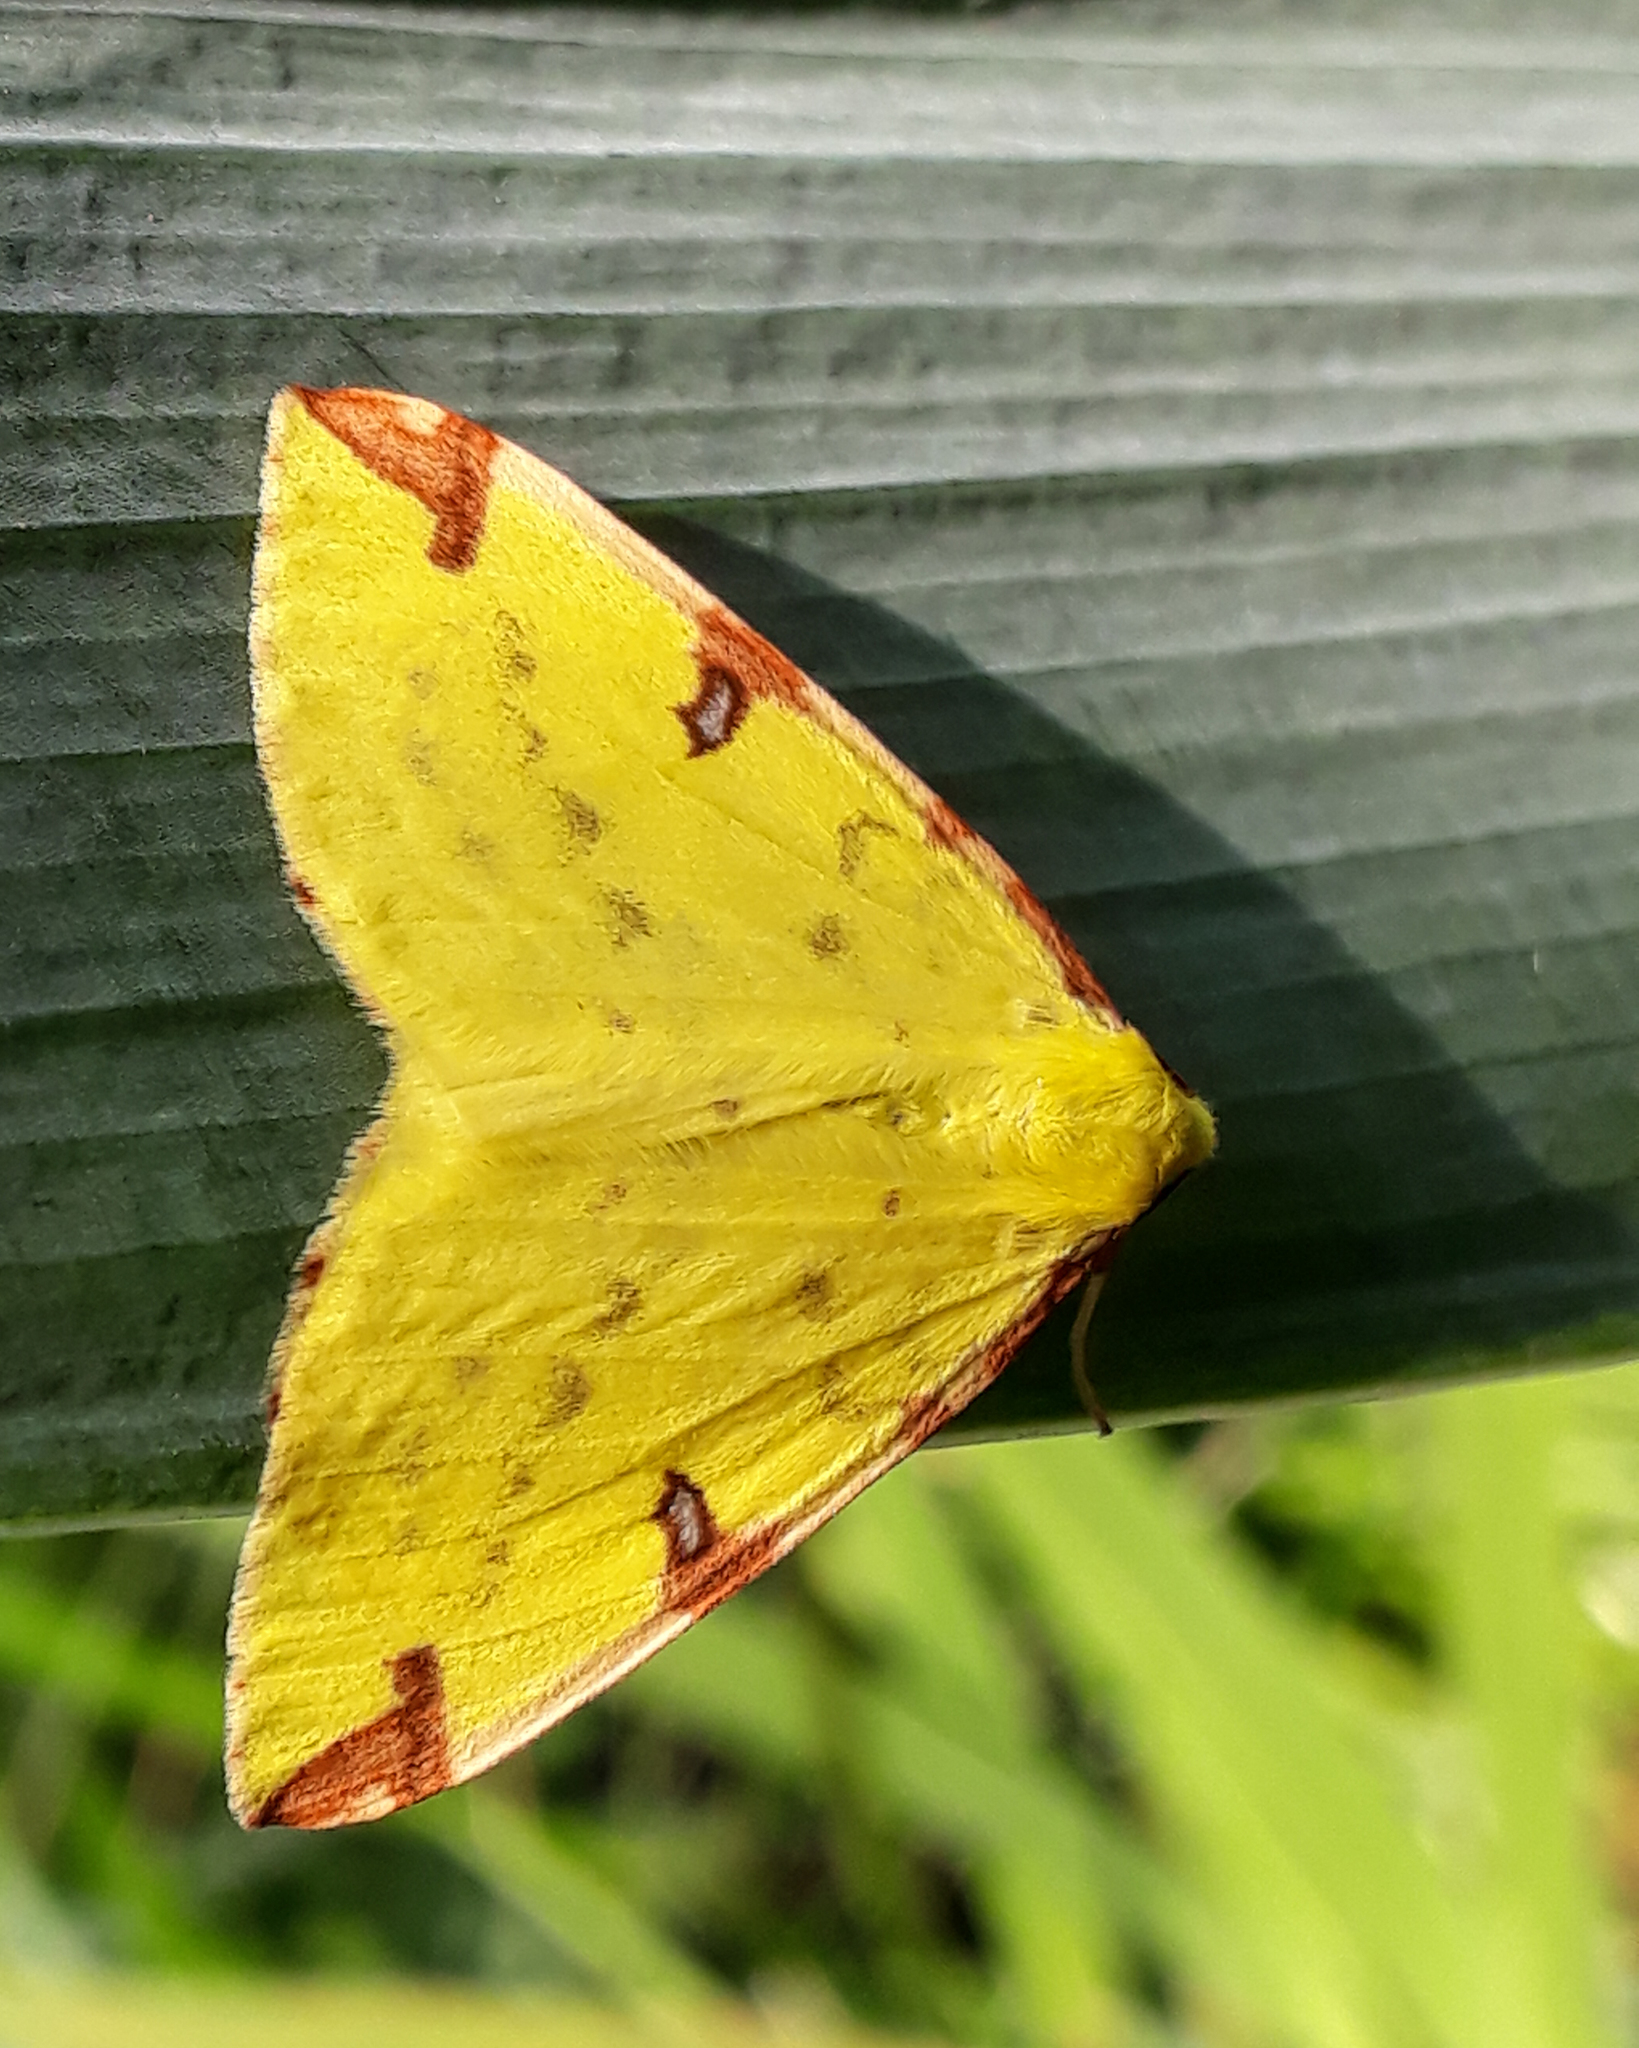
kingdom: Animalia
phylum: Arthropoda
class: Insecta
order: Lepidoptera
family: Geometridae
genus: Opisthograptis
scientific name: Opisthograptis luteolata
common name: Brimstone moth
